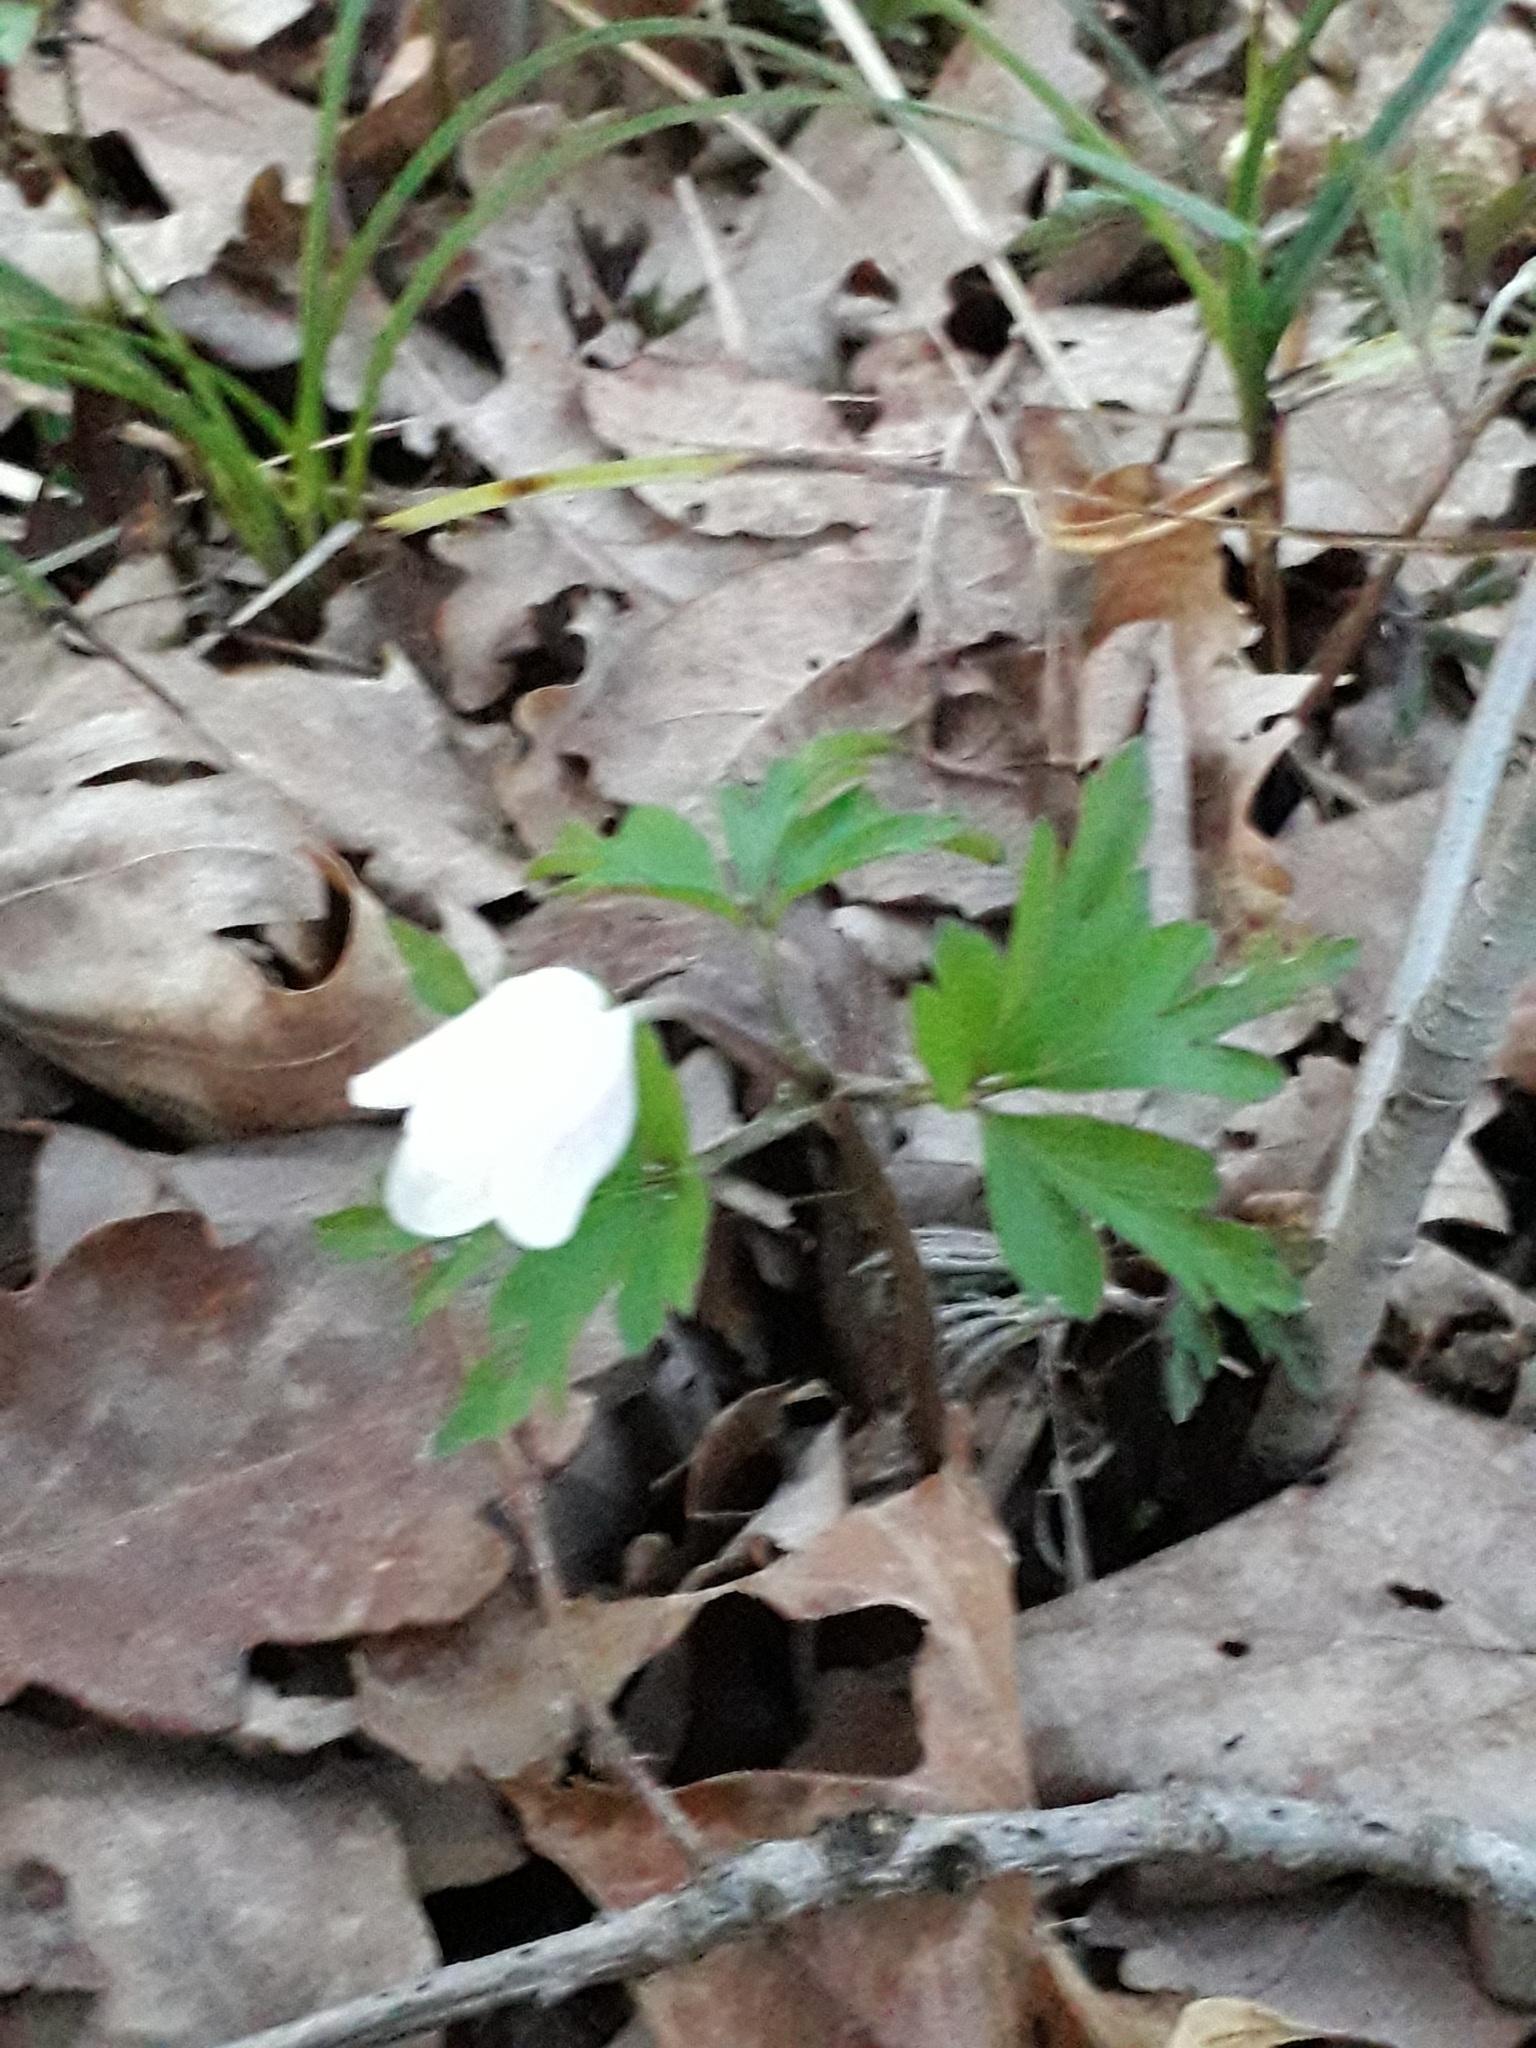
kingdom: Plantae
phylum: Tracheophyta
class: Magnoliopsida
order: Ranunculales
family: Ranunculaceae
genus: Anemone
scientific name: Anemone nemorosa
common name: Wood anemone
